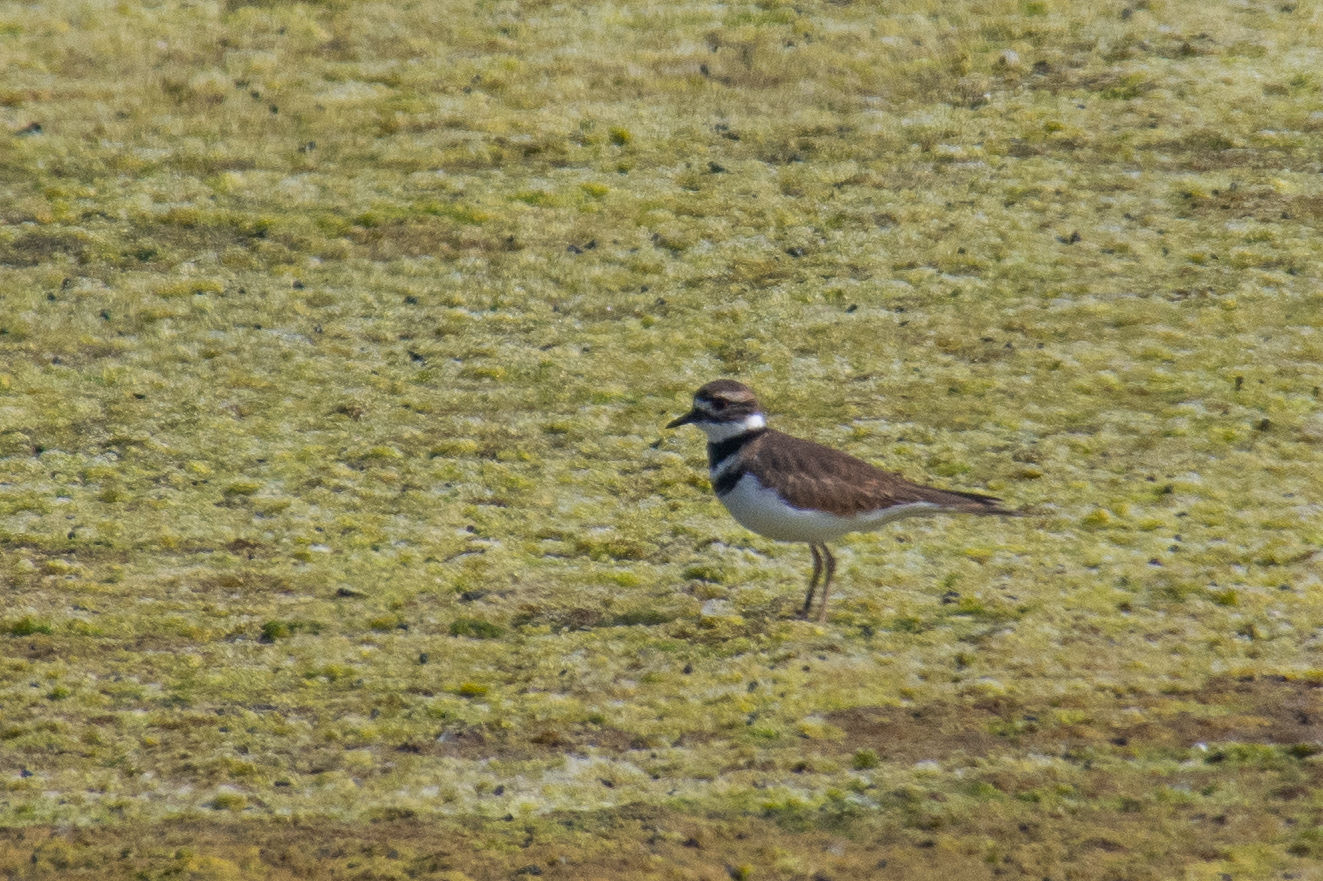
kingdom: Animalia
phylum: Chordata
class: Aves
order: Charadriiformes
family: Charadriidae
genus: Charadrius
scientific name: Charadrius vociferus
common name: Killdeer
